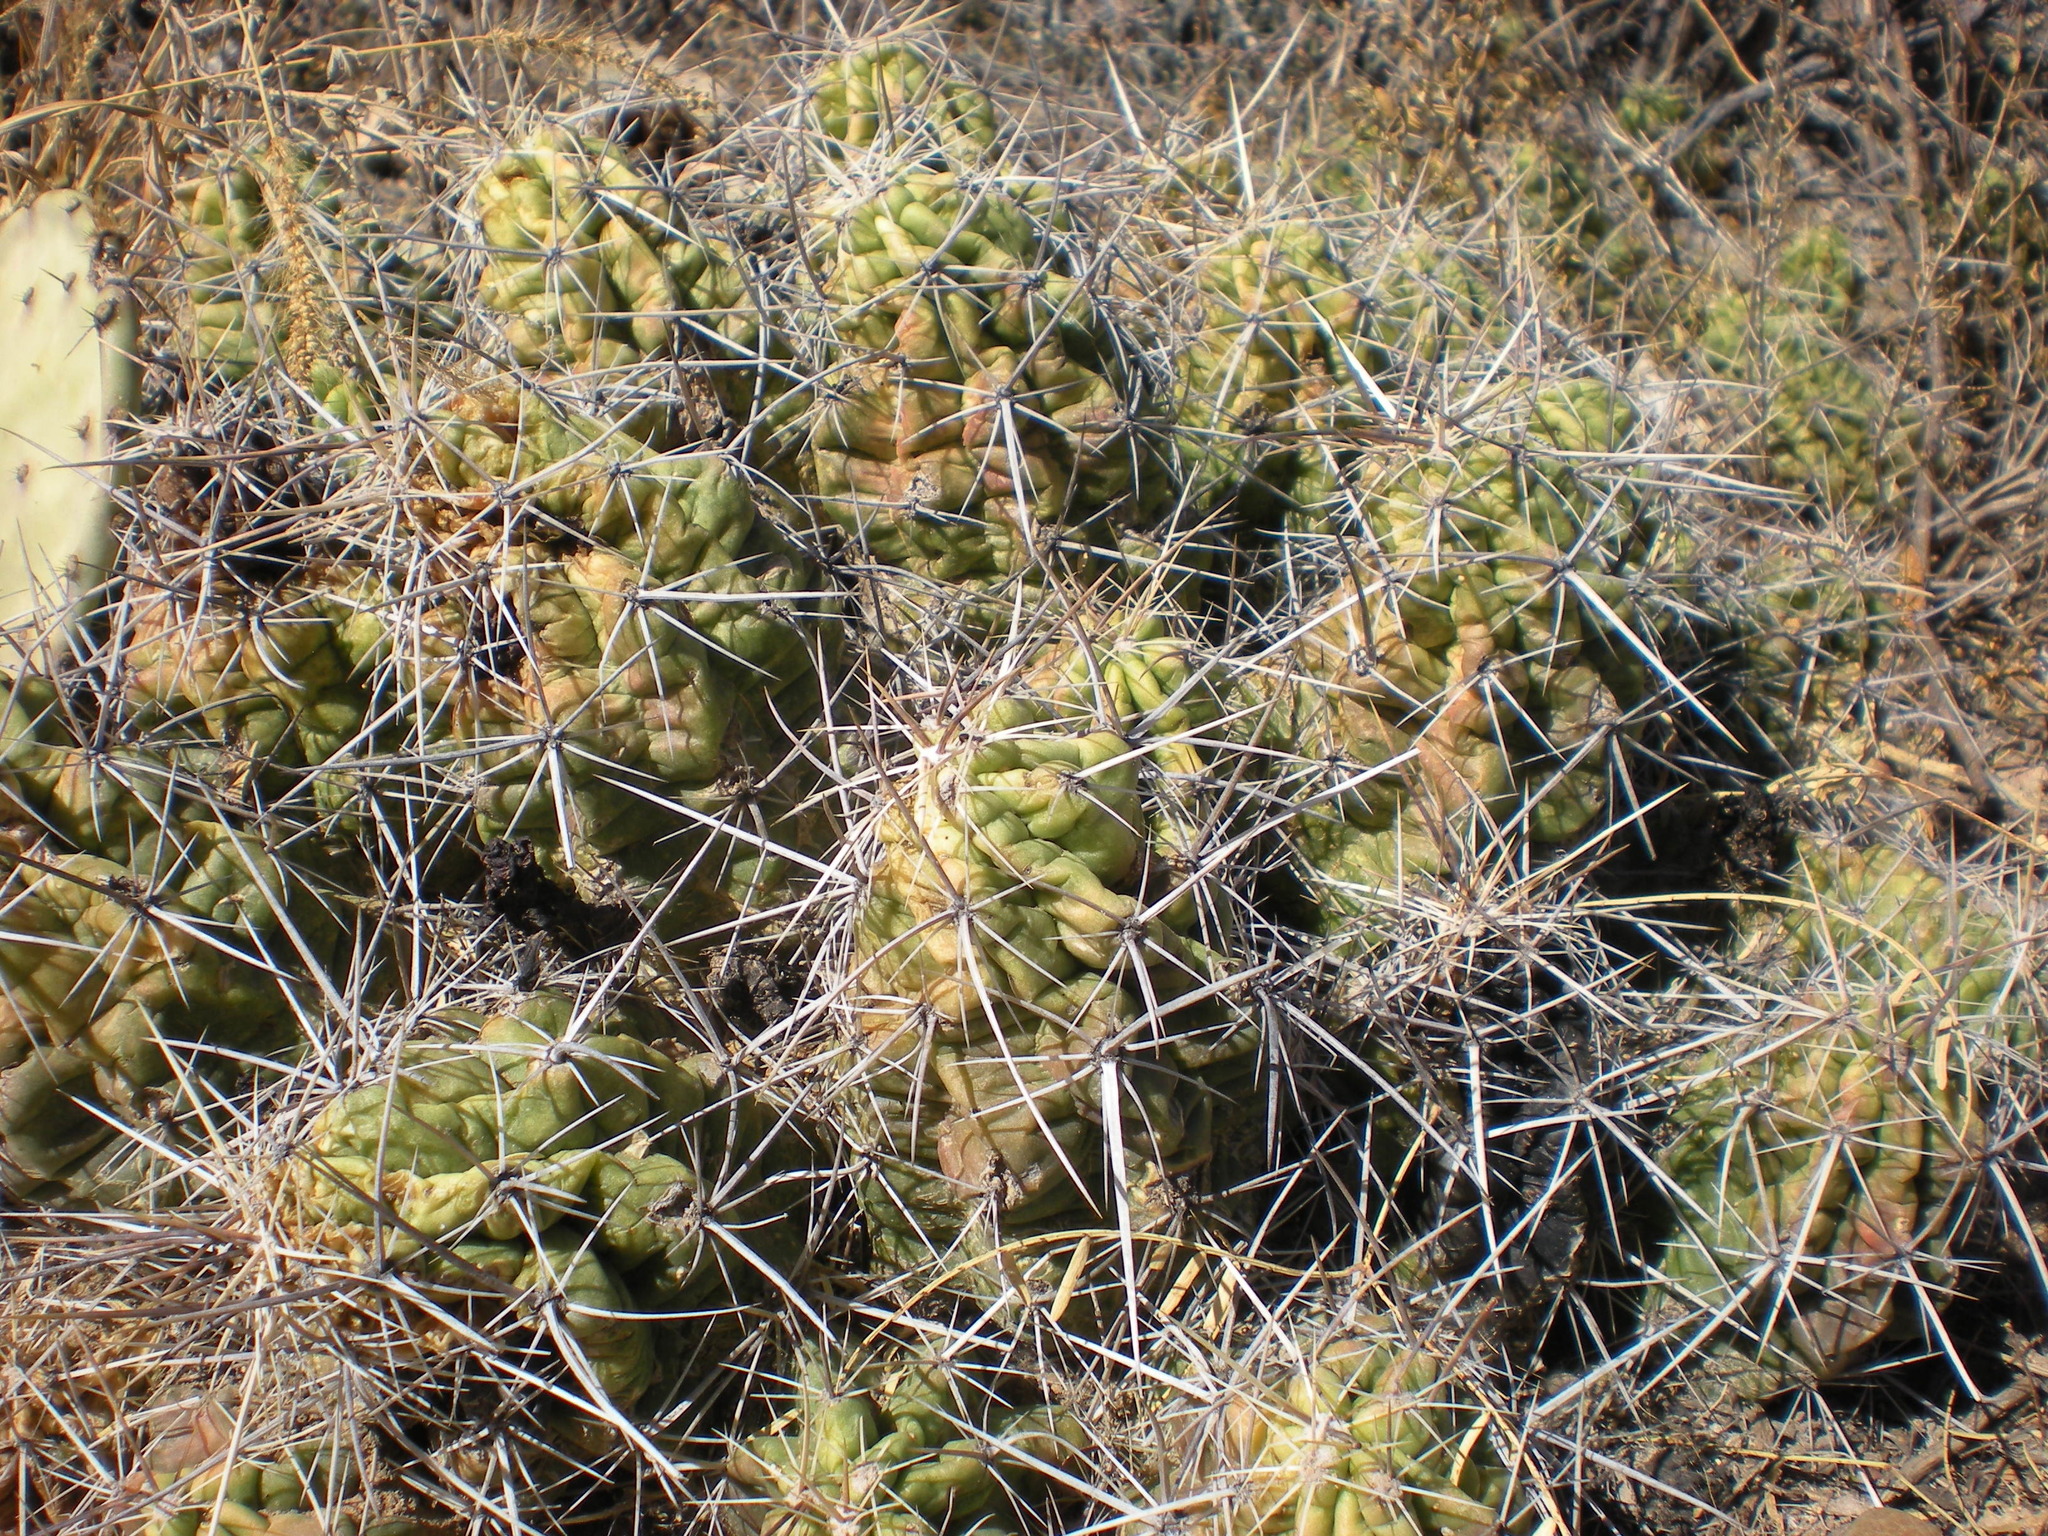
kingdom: Plantae
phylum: Tracheophyta
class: Magnoliopsida
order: Caryophyllales
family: Cactaceae
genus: Echinocereus
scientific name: Echinocereus enneacanthus
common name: Pitaya
